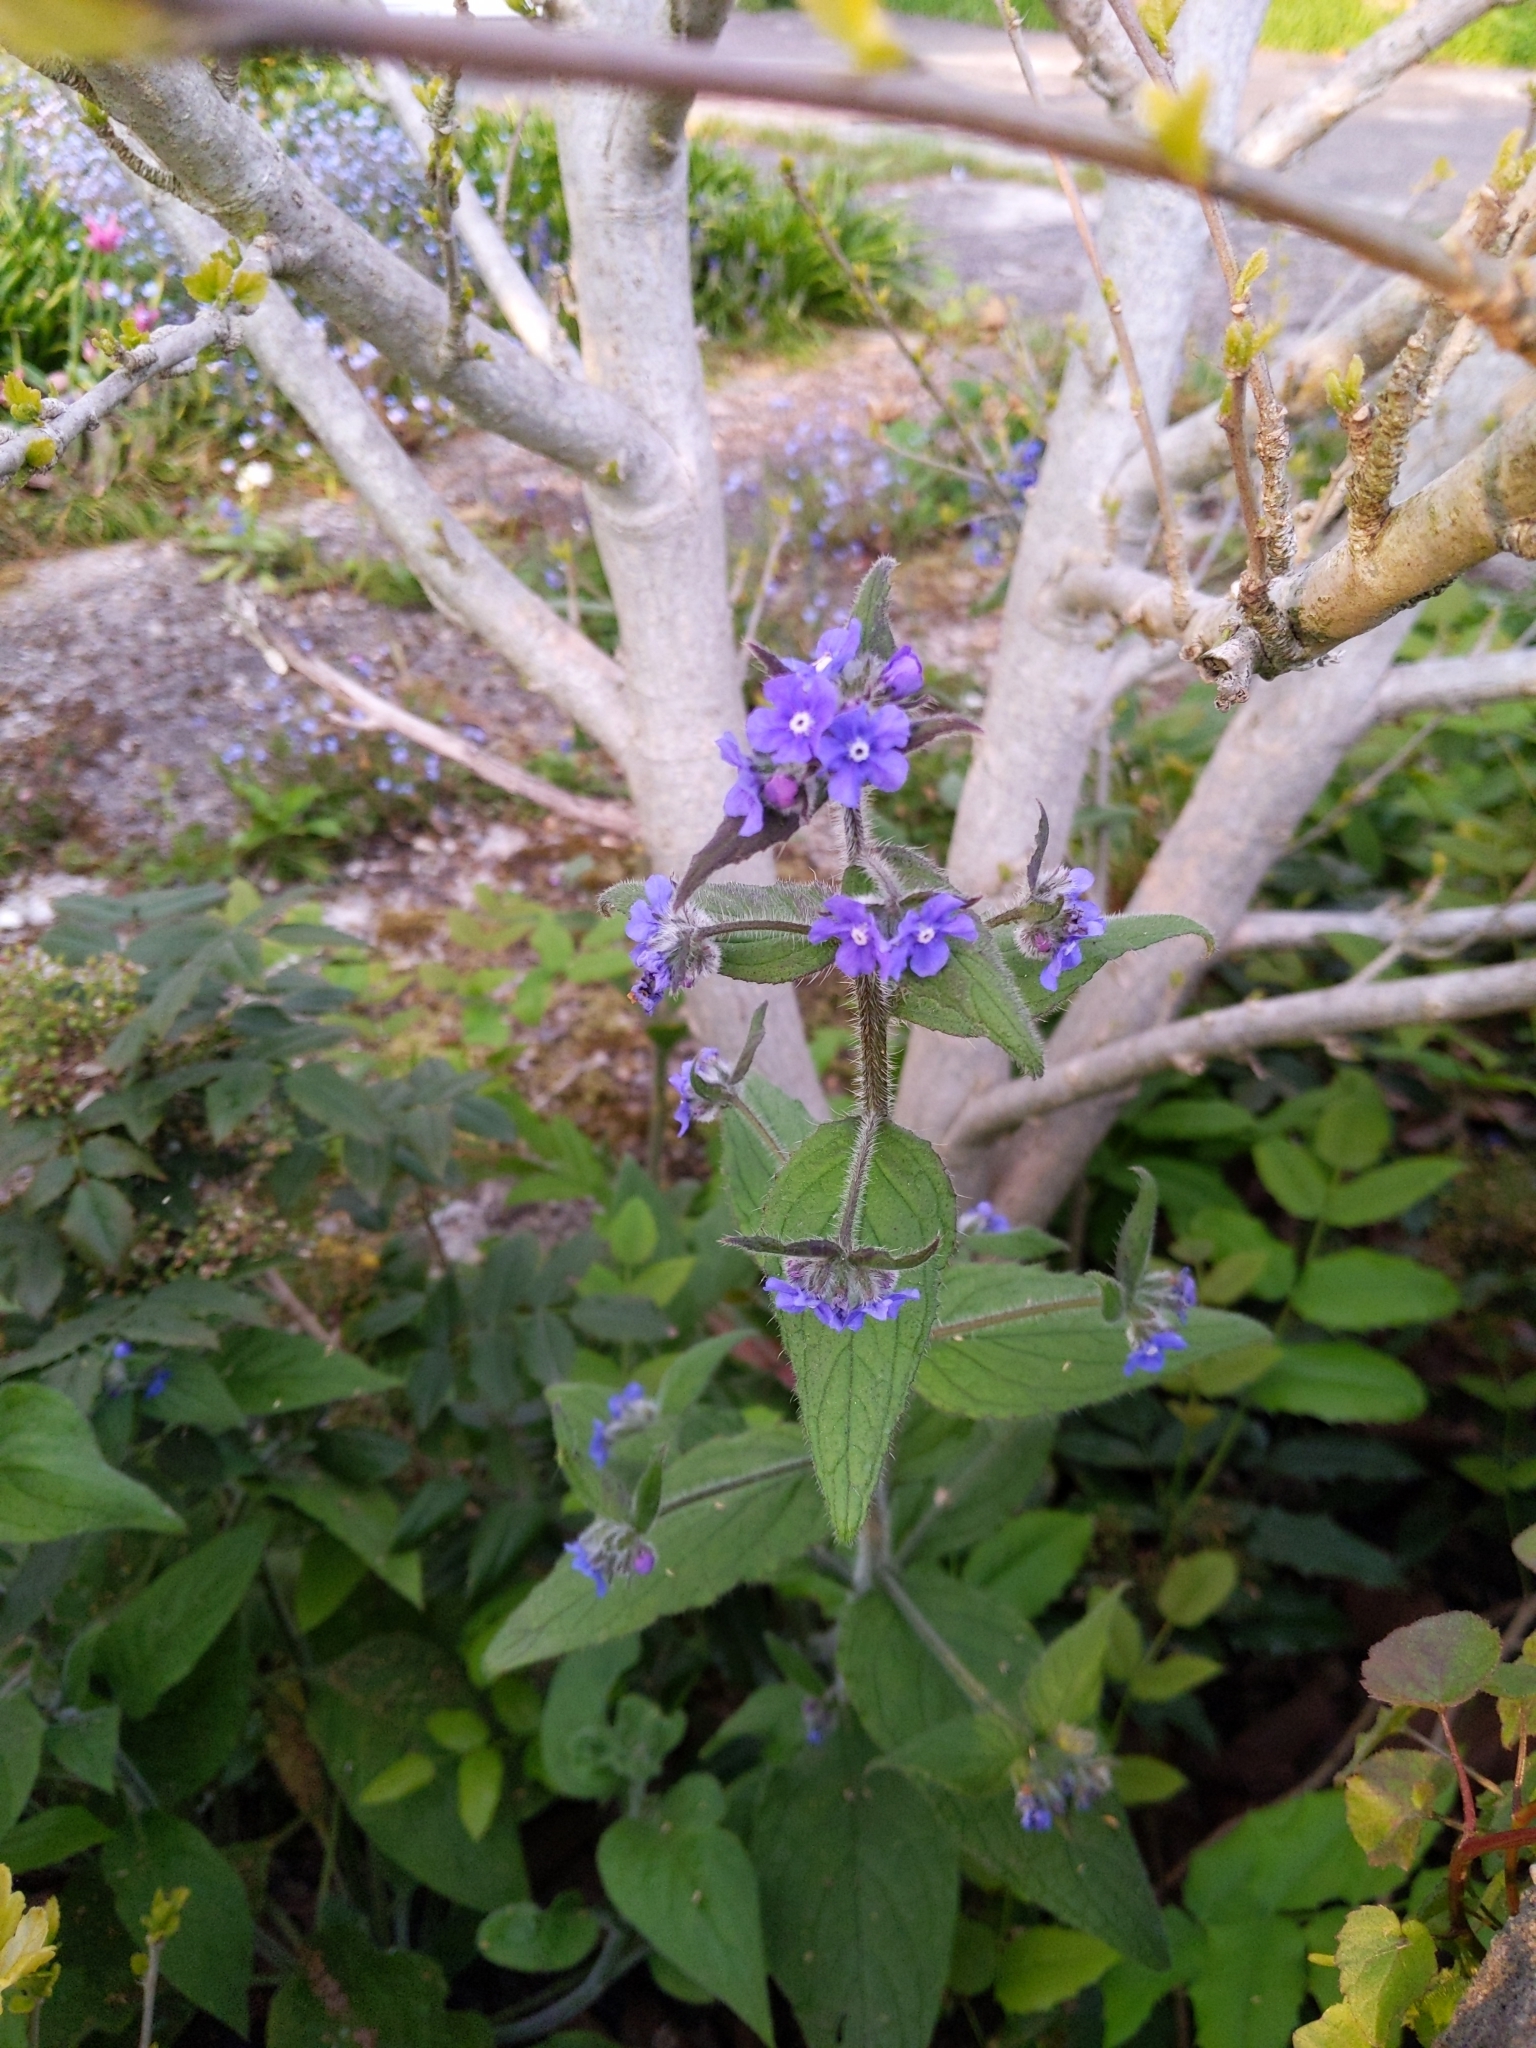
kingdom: Plantae
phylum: Tracheophyta
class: Magnoliopsida
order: Boraginales
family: Boraginaceae
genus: Pentaglottis
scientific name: Pentaglottis sempervirens
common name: Green alkanet
